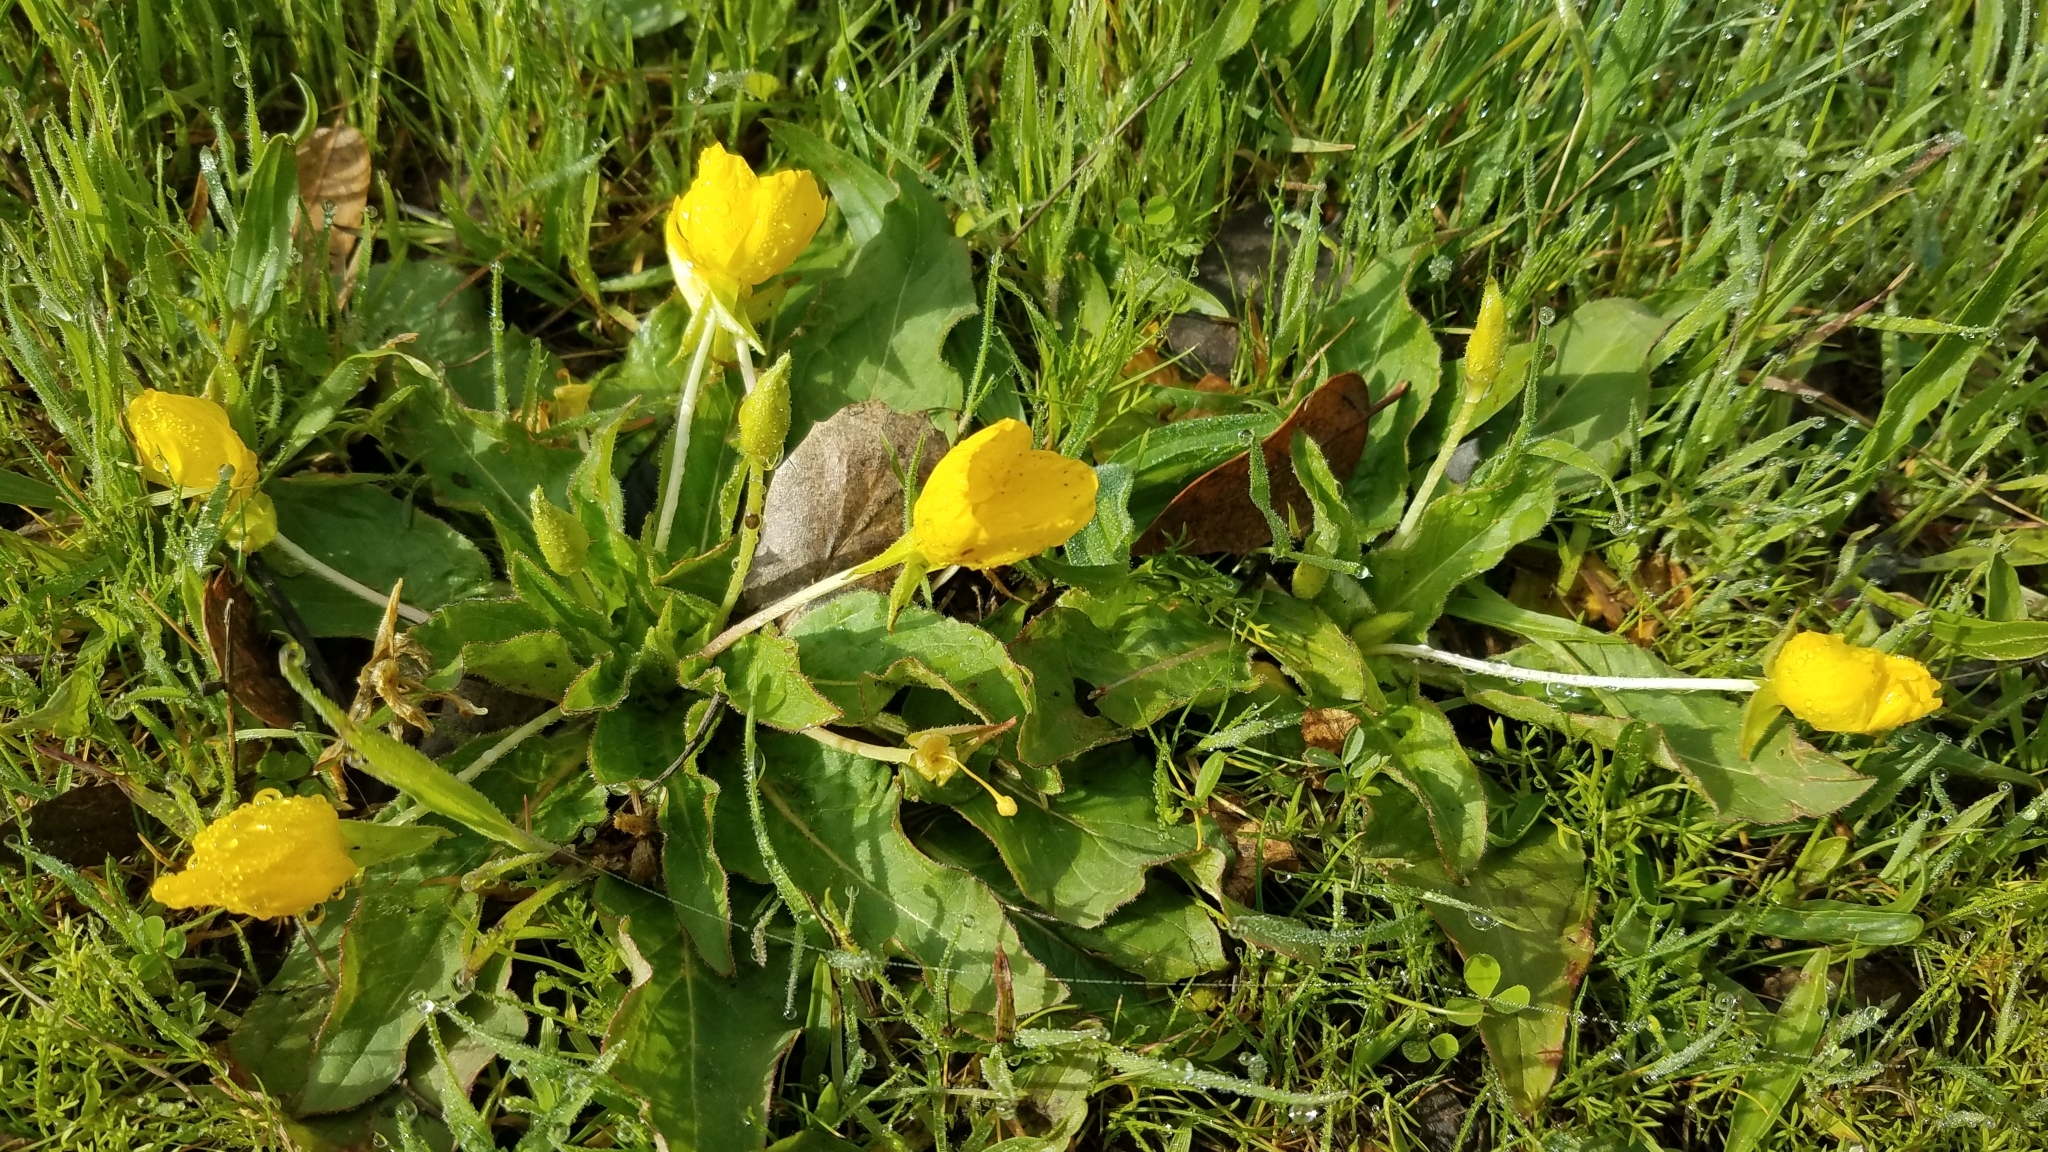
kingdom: Plantae
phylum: Tracheophyta
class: Magnoliopsida
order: Myrtales
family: Onagraceae
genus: Taraxia
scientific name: Taraxia ovata
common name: Goldeneggs
